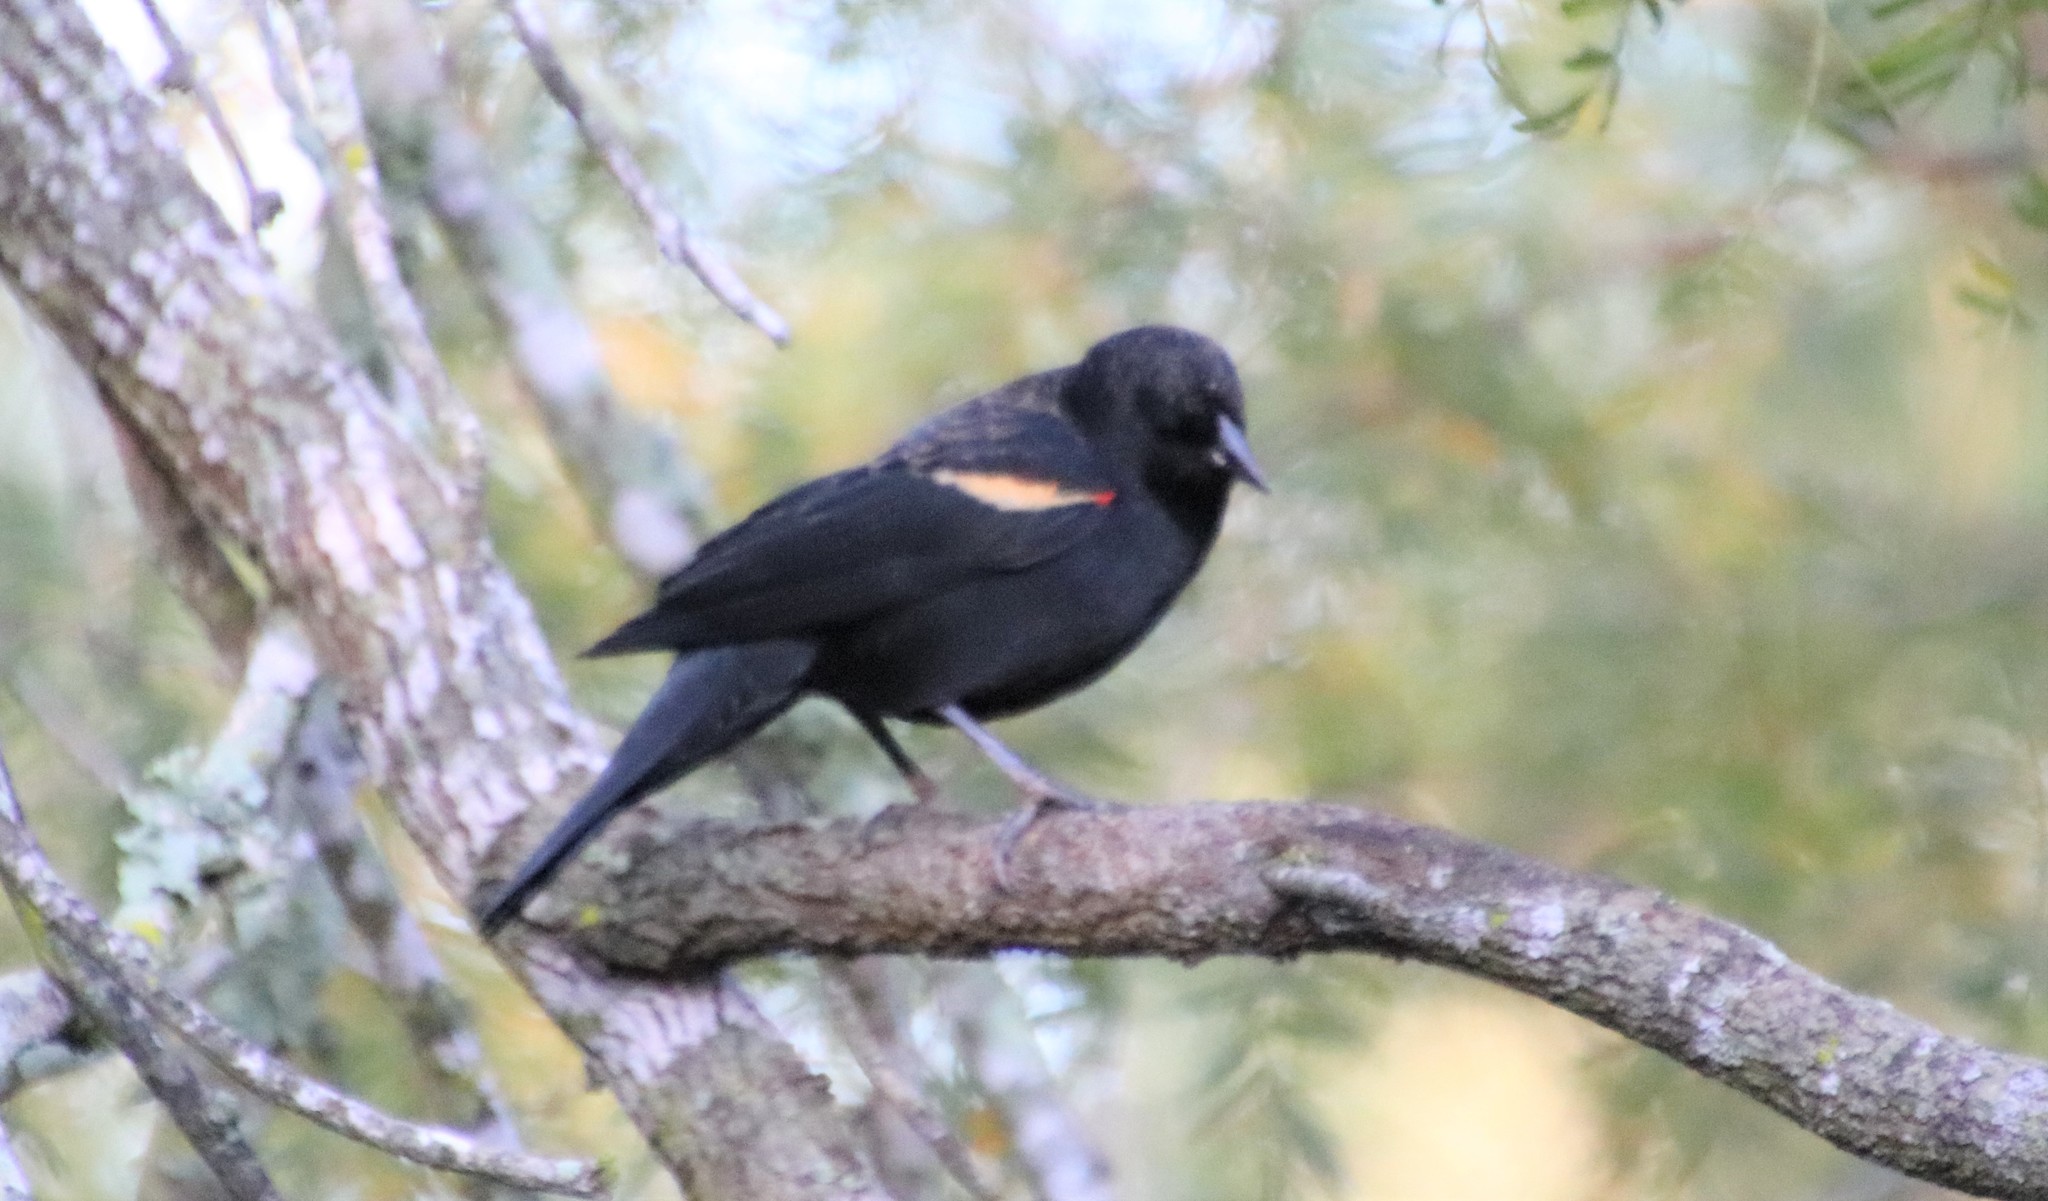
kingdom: Animalia
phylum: Chordata
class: Aves
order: Passeriformes
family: Icteridae
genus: Agelaius
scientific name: Agelaius phoeniceus
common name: Red-winged blackbird
